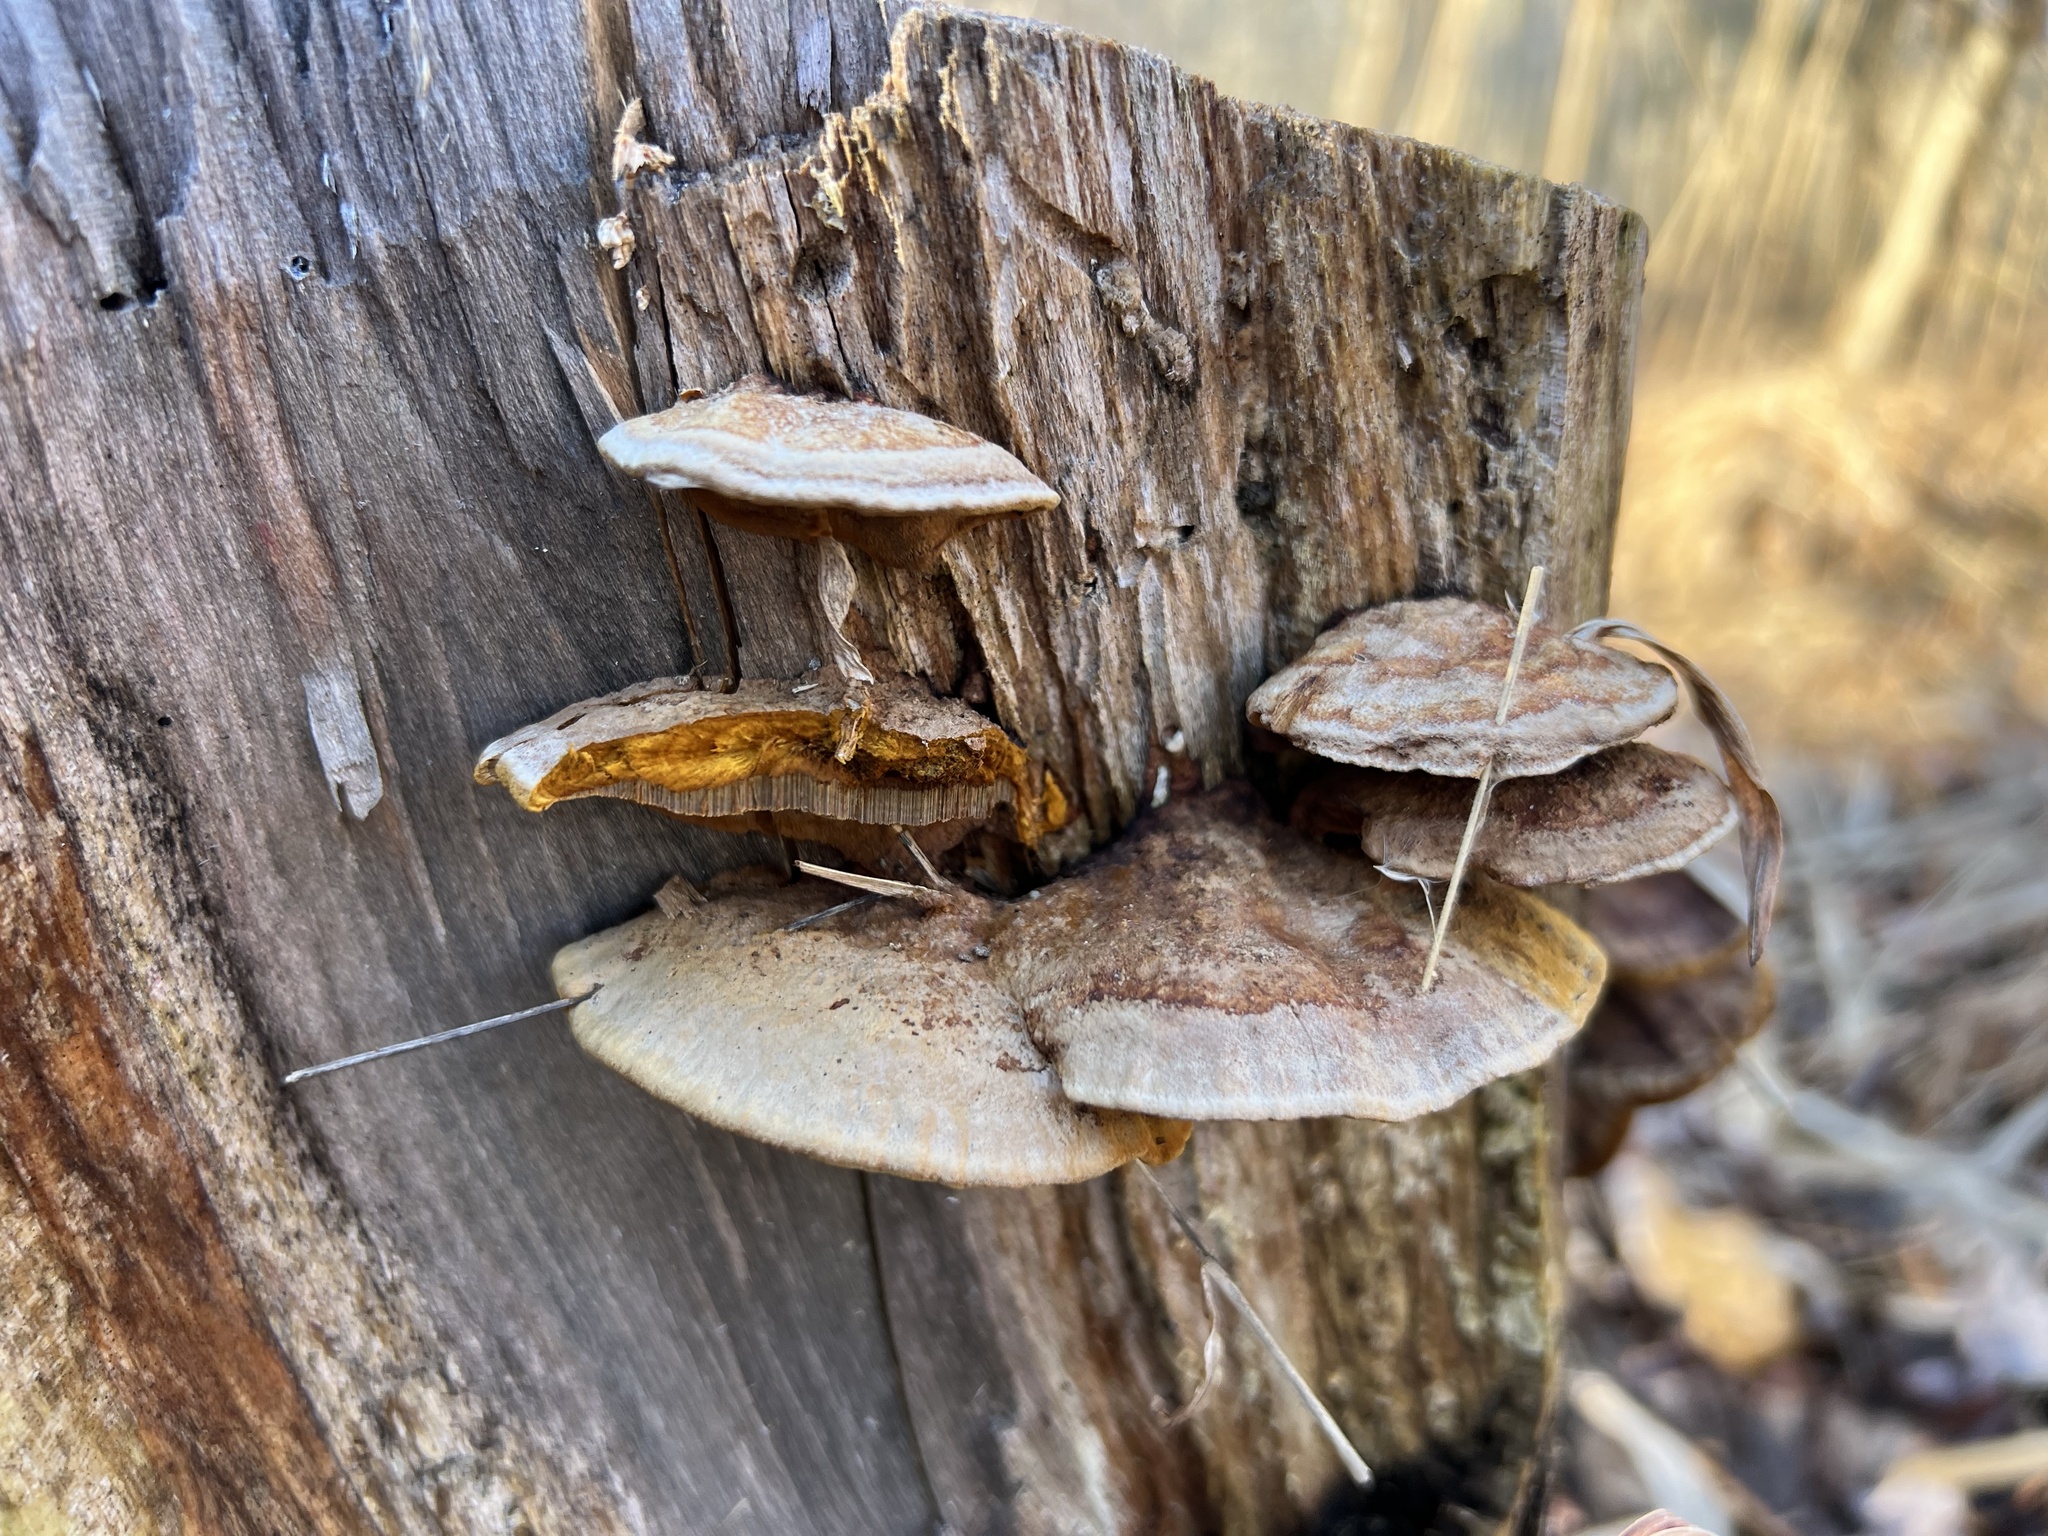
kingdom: Fungi
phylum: Basidiomycota
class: Agaricomycetes
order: Hymenochaetales
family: Hymenochaetaceae
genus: Phellinus
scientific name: Phellinus gilvus
